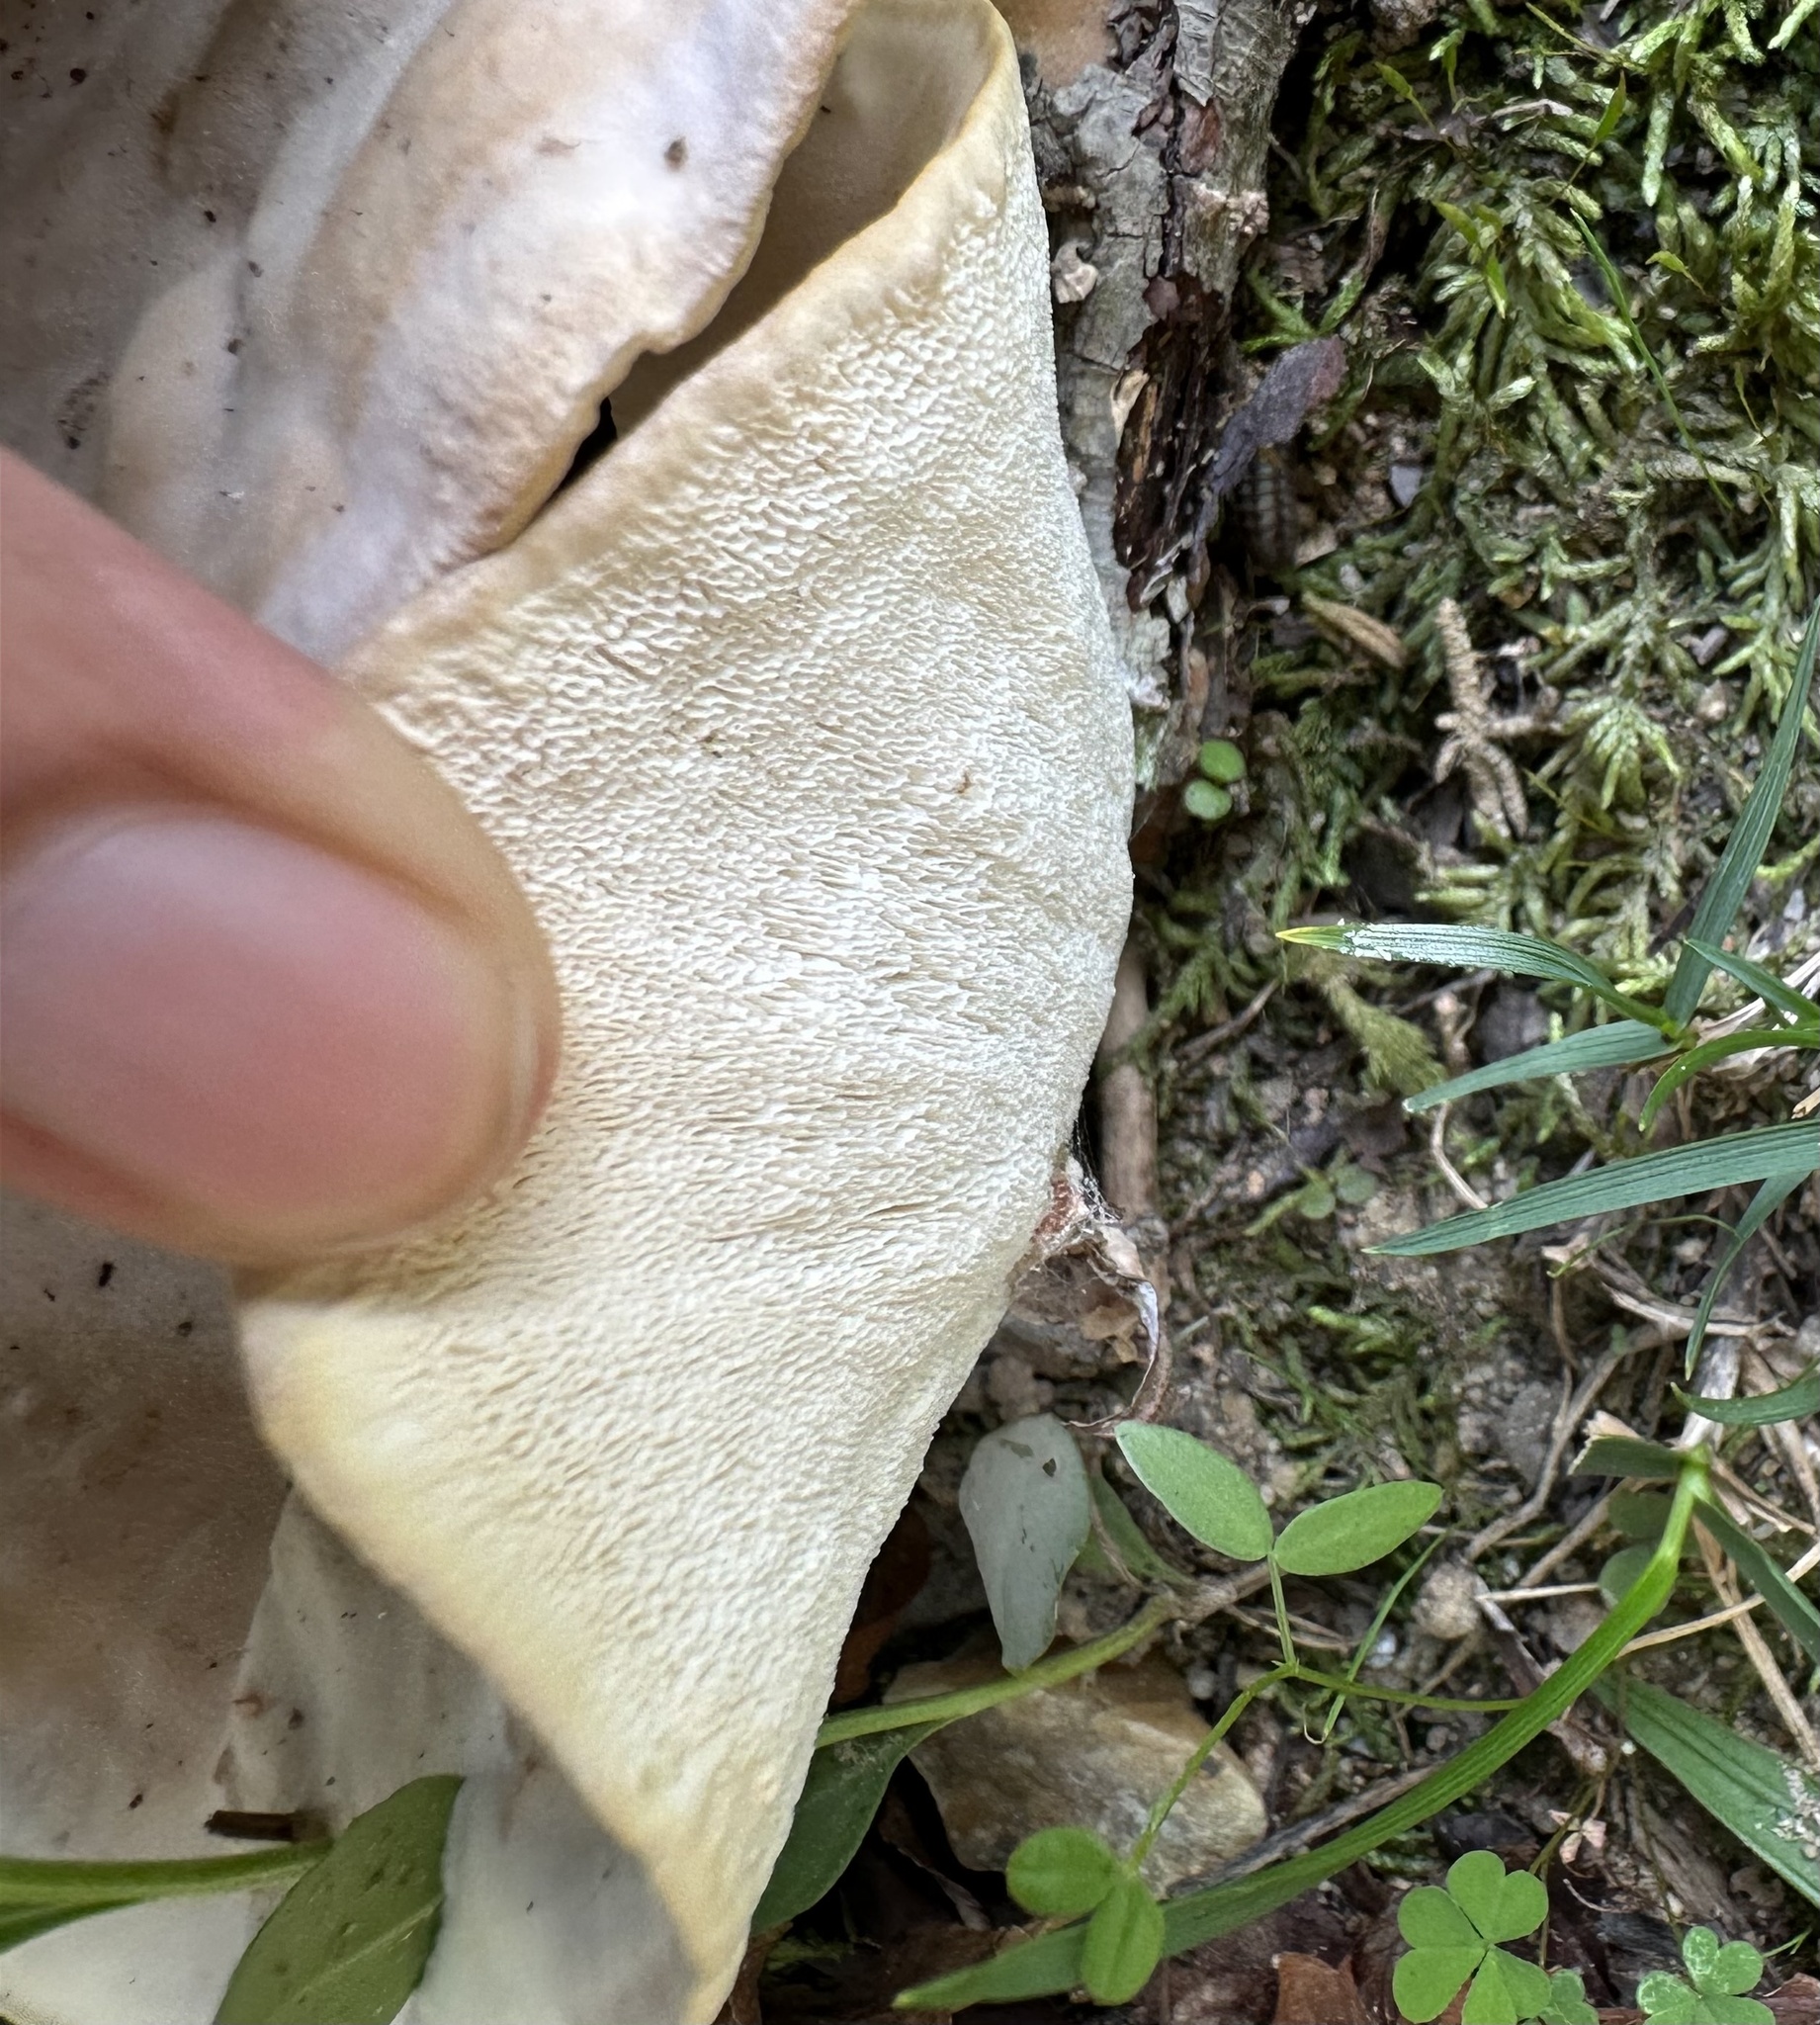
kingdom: Fungi
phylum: Basidiomycota
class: Agaricomycetes
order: Polyporales
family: Podoscyphaceae
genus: Abortiporus
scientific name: Abortiporus biennis
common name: Blushing rosette
